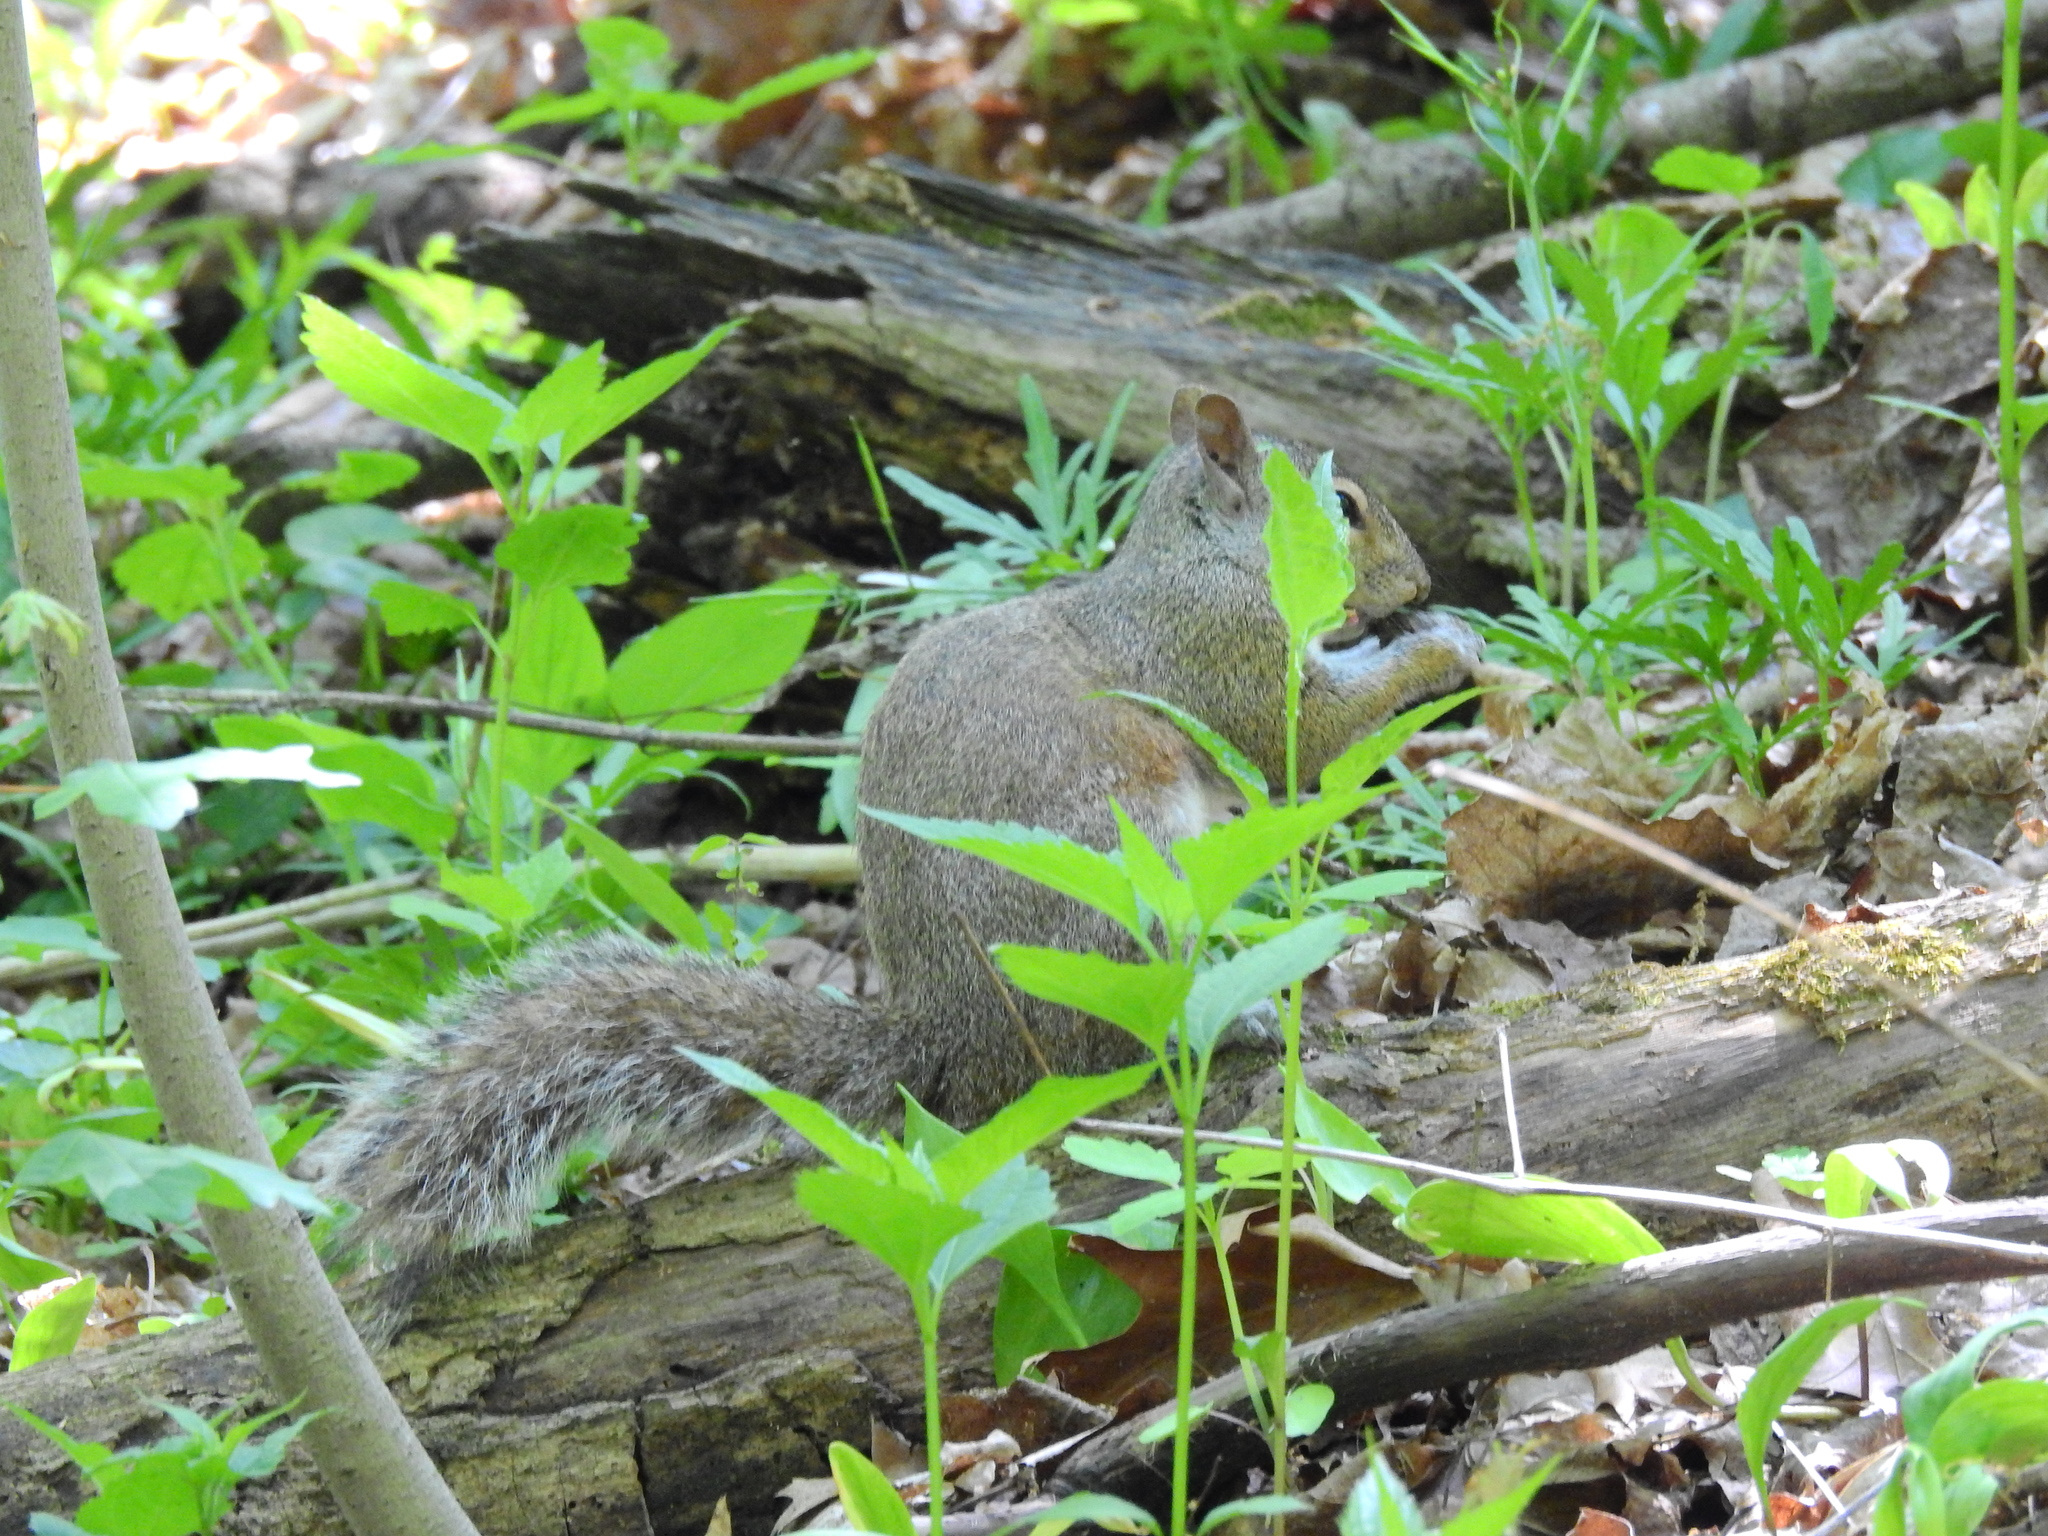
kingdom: Animalia
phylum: Chordata
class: Mammalia
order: Rodentia
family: Sciuridae
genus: Sciurus
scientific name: Sciurus carolinensis
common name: Eastern gray squirrel
